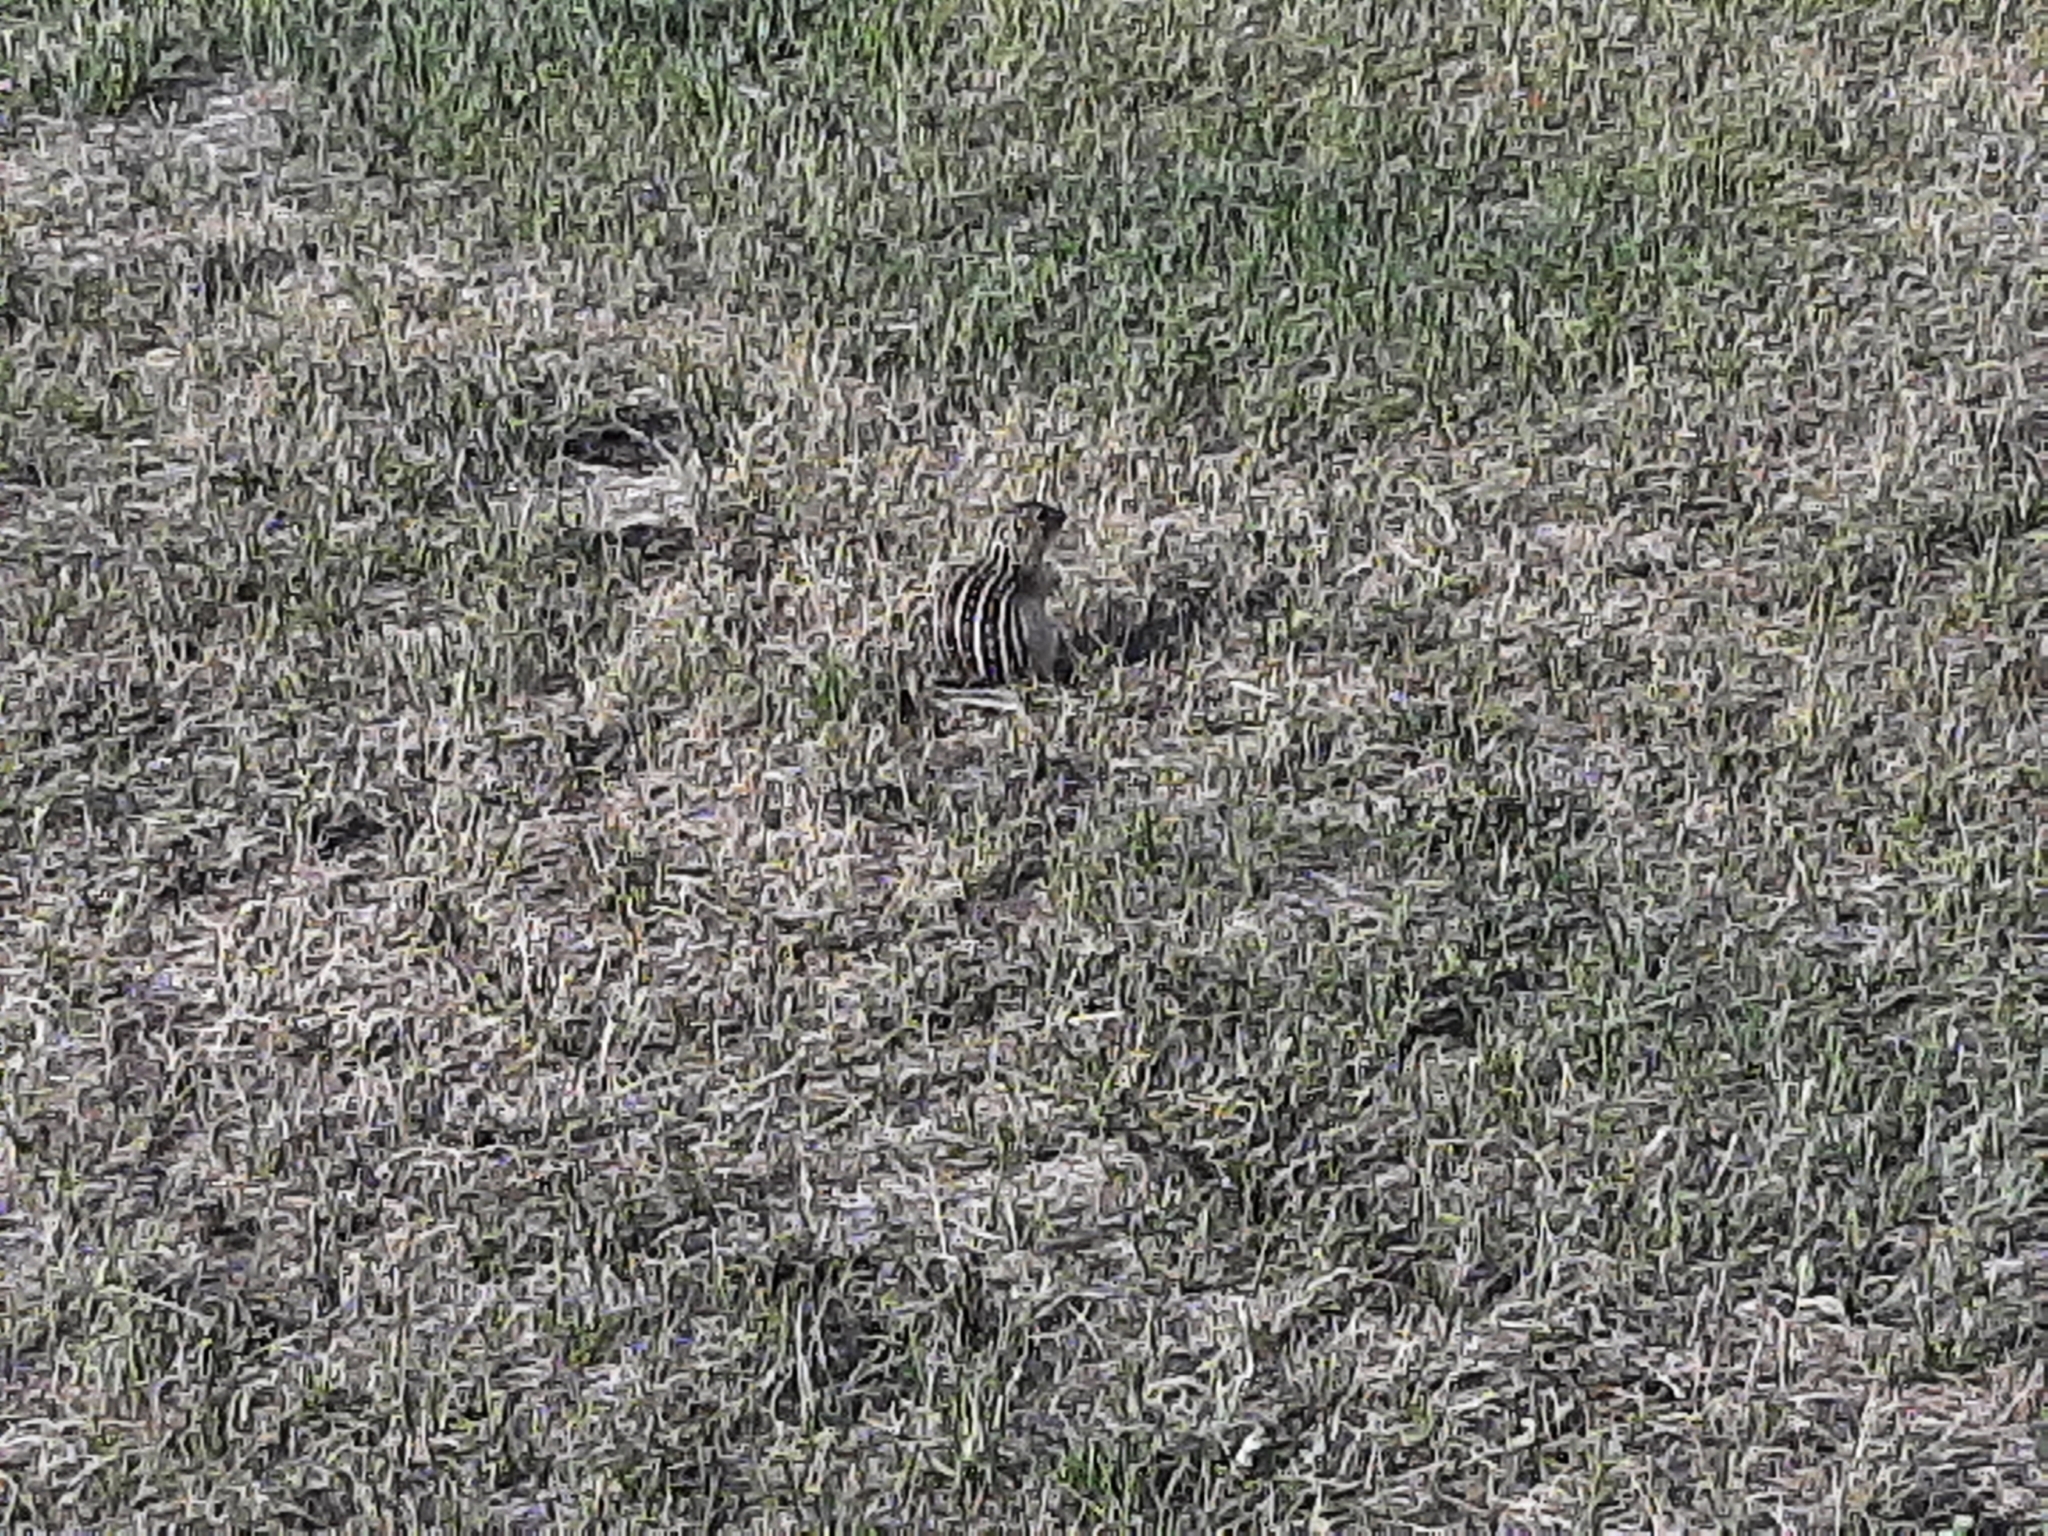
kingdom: Animalia
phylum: Chordata
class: Mammalia
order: Rodentia
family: Sciuridae
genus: Ictidomys
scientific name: Ictidomys tridecemlineatus
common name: Thirteen-lined ground squirrel
